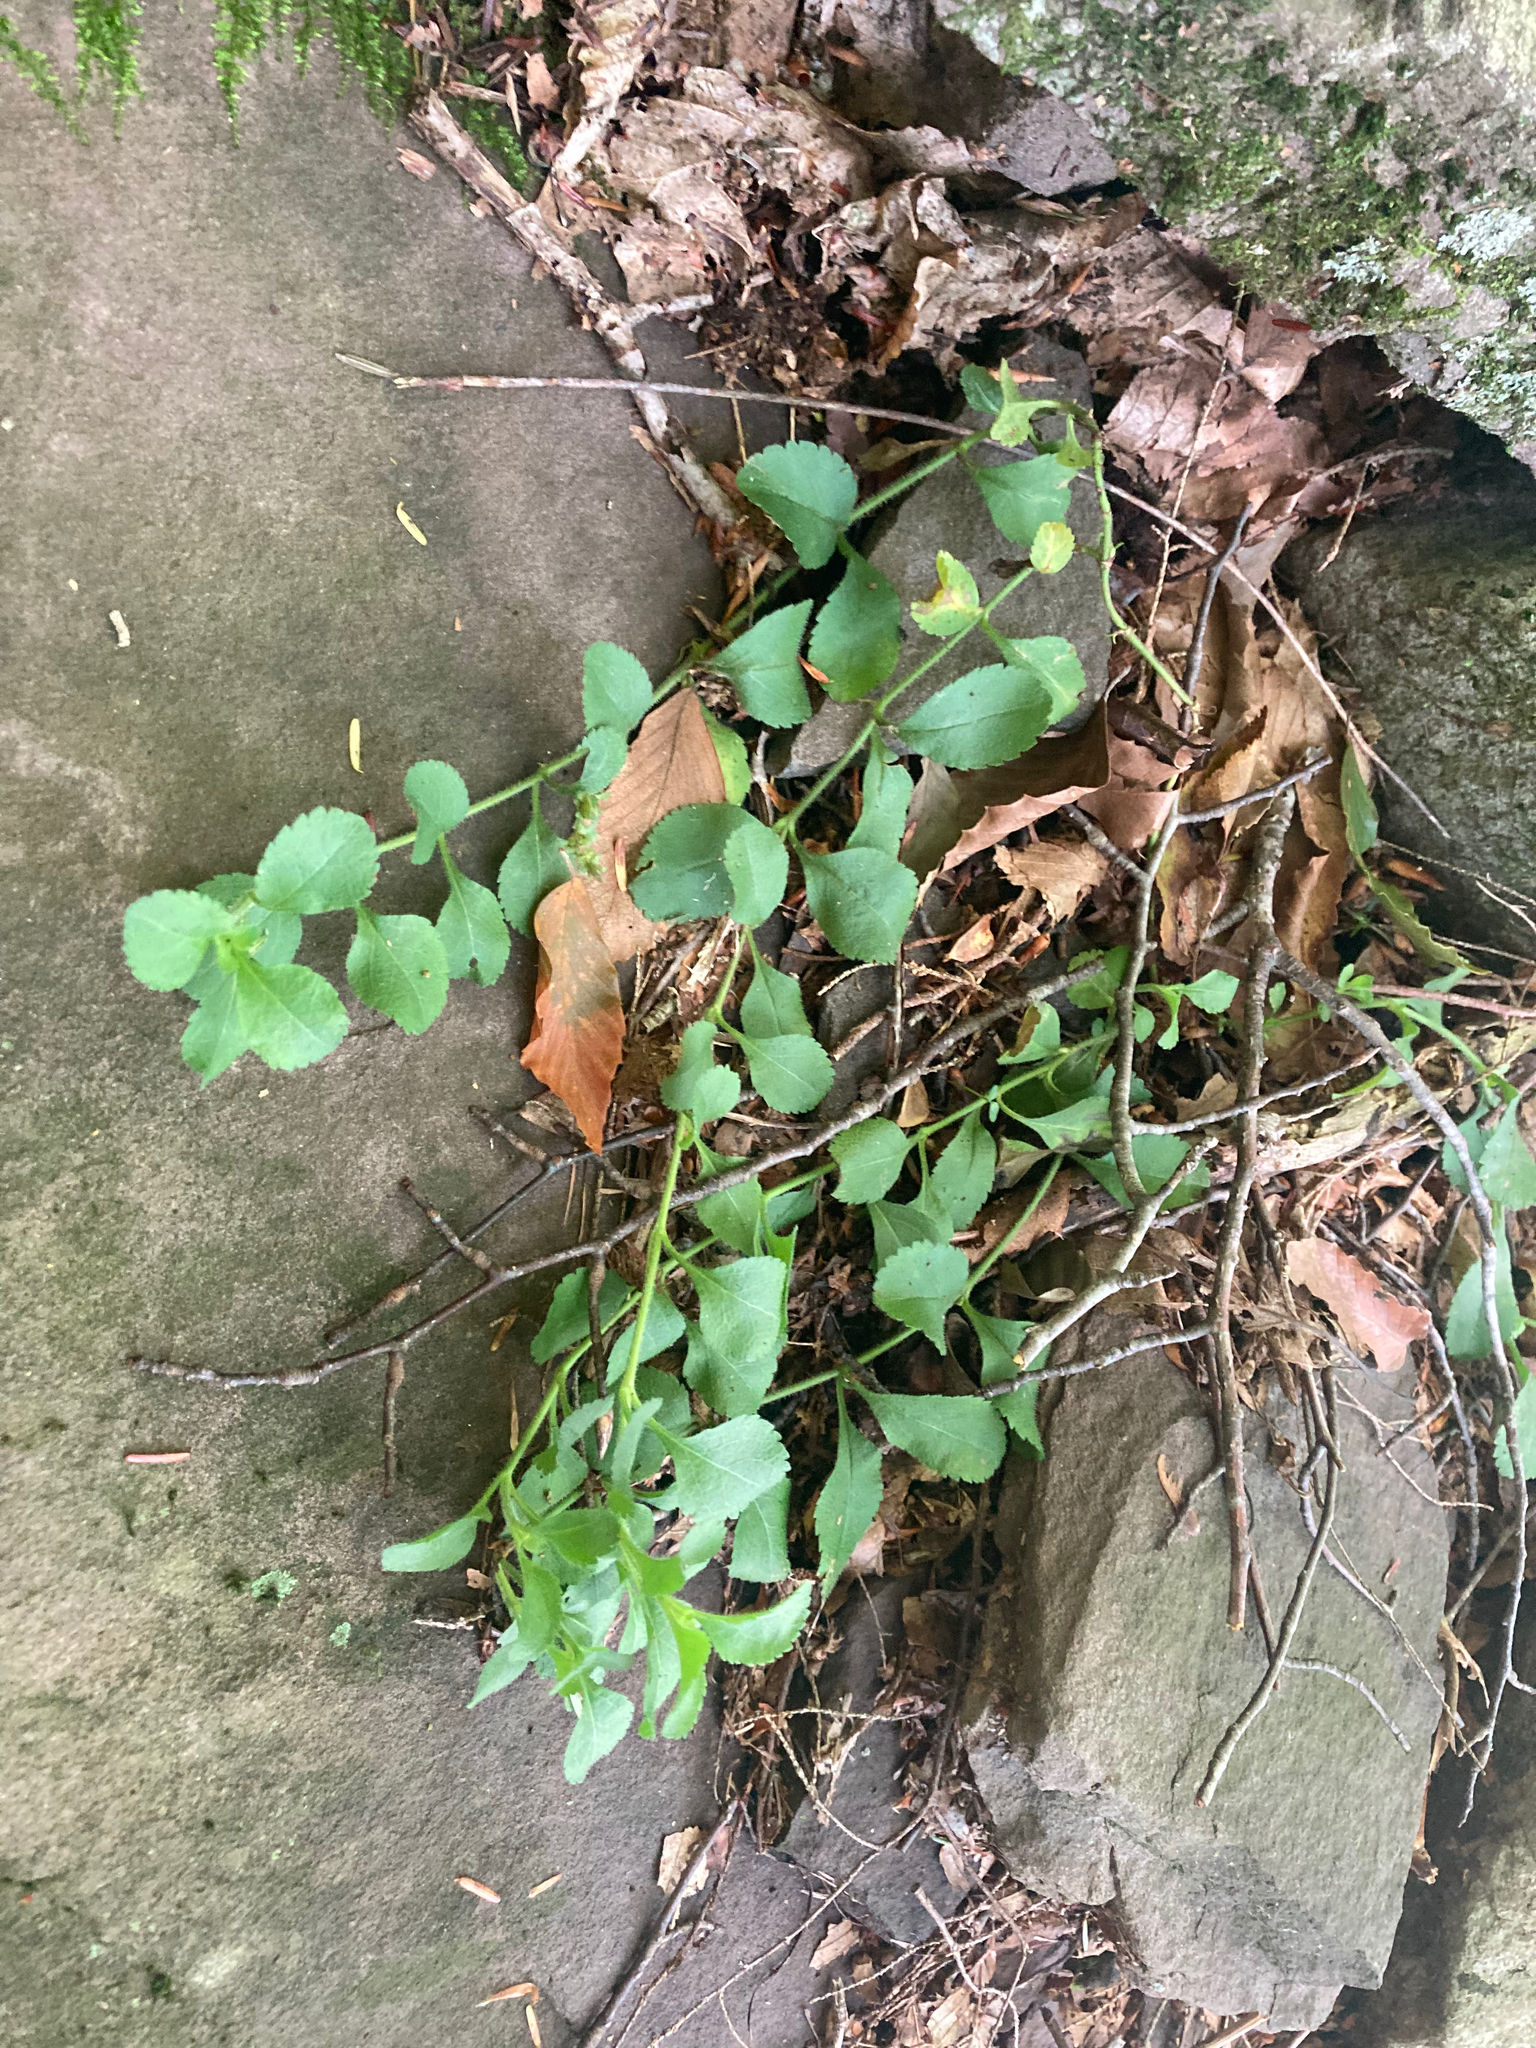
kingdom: Plantae
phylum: Tracheophyta
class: Magnoliopsida
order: Lamiales
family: Plantaginaceae
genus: Veronica
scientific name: Veronica officinalis
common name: Common speedwell
